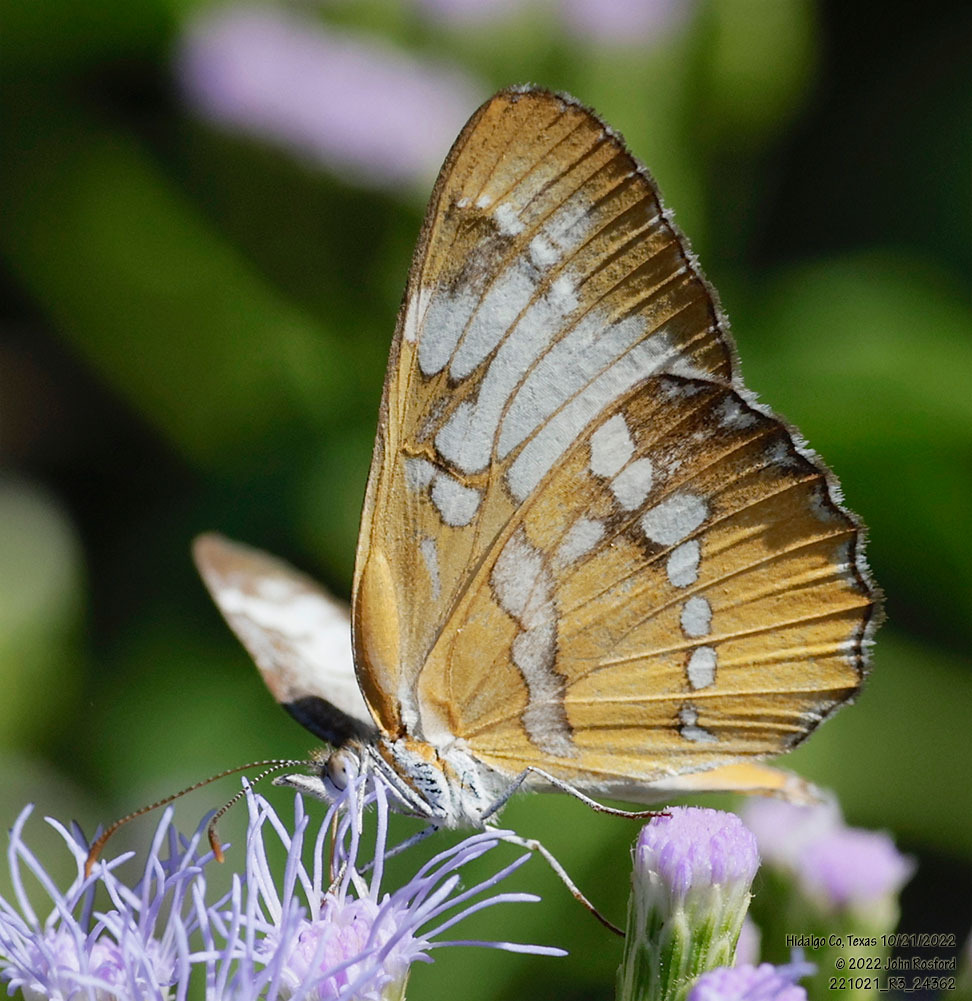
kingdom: Animalia
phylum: Arthropoda
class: Insecta
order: Lepidoptera
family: Nymphalidae
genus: Mestra
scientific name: Mestra amymone
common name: Common mestra
